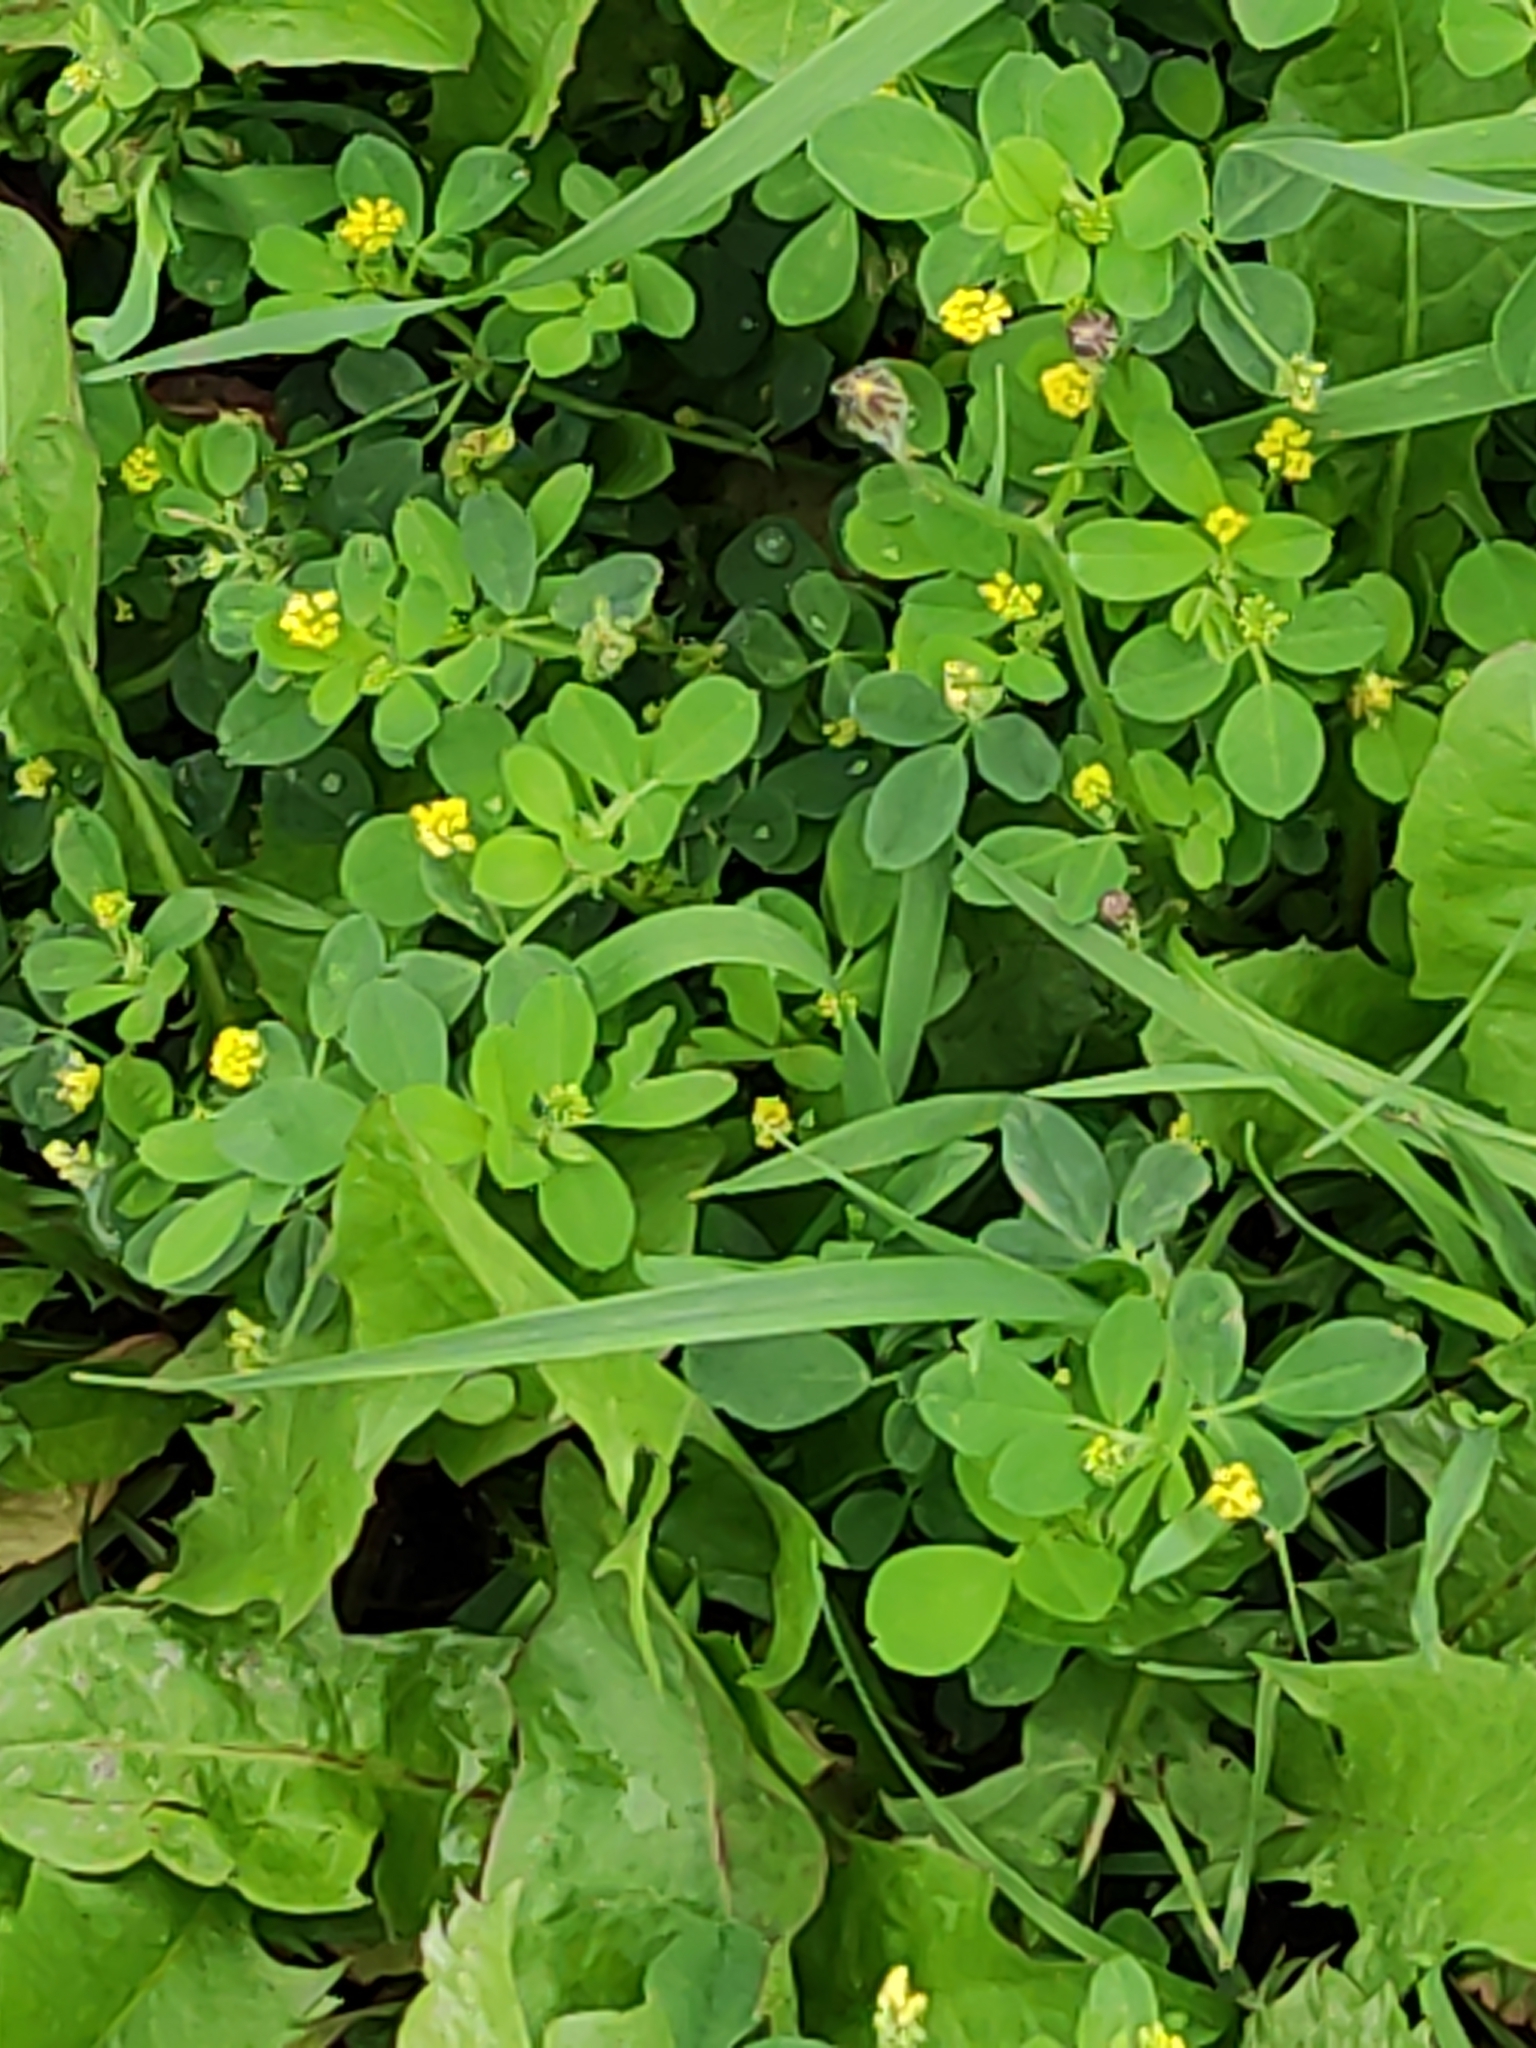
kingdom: Plantae
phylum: Tracheophyta
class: Magnoliopsida
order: Fabales
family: Fabaceae
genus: Medicago
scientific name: Medicago lupulina
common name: Black medick
